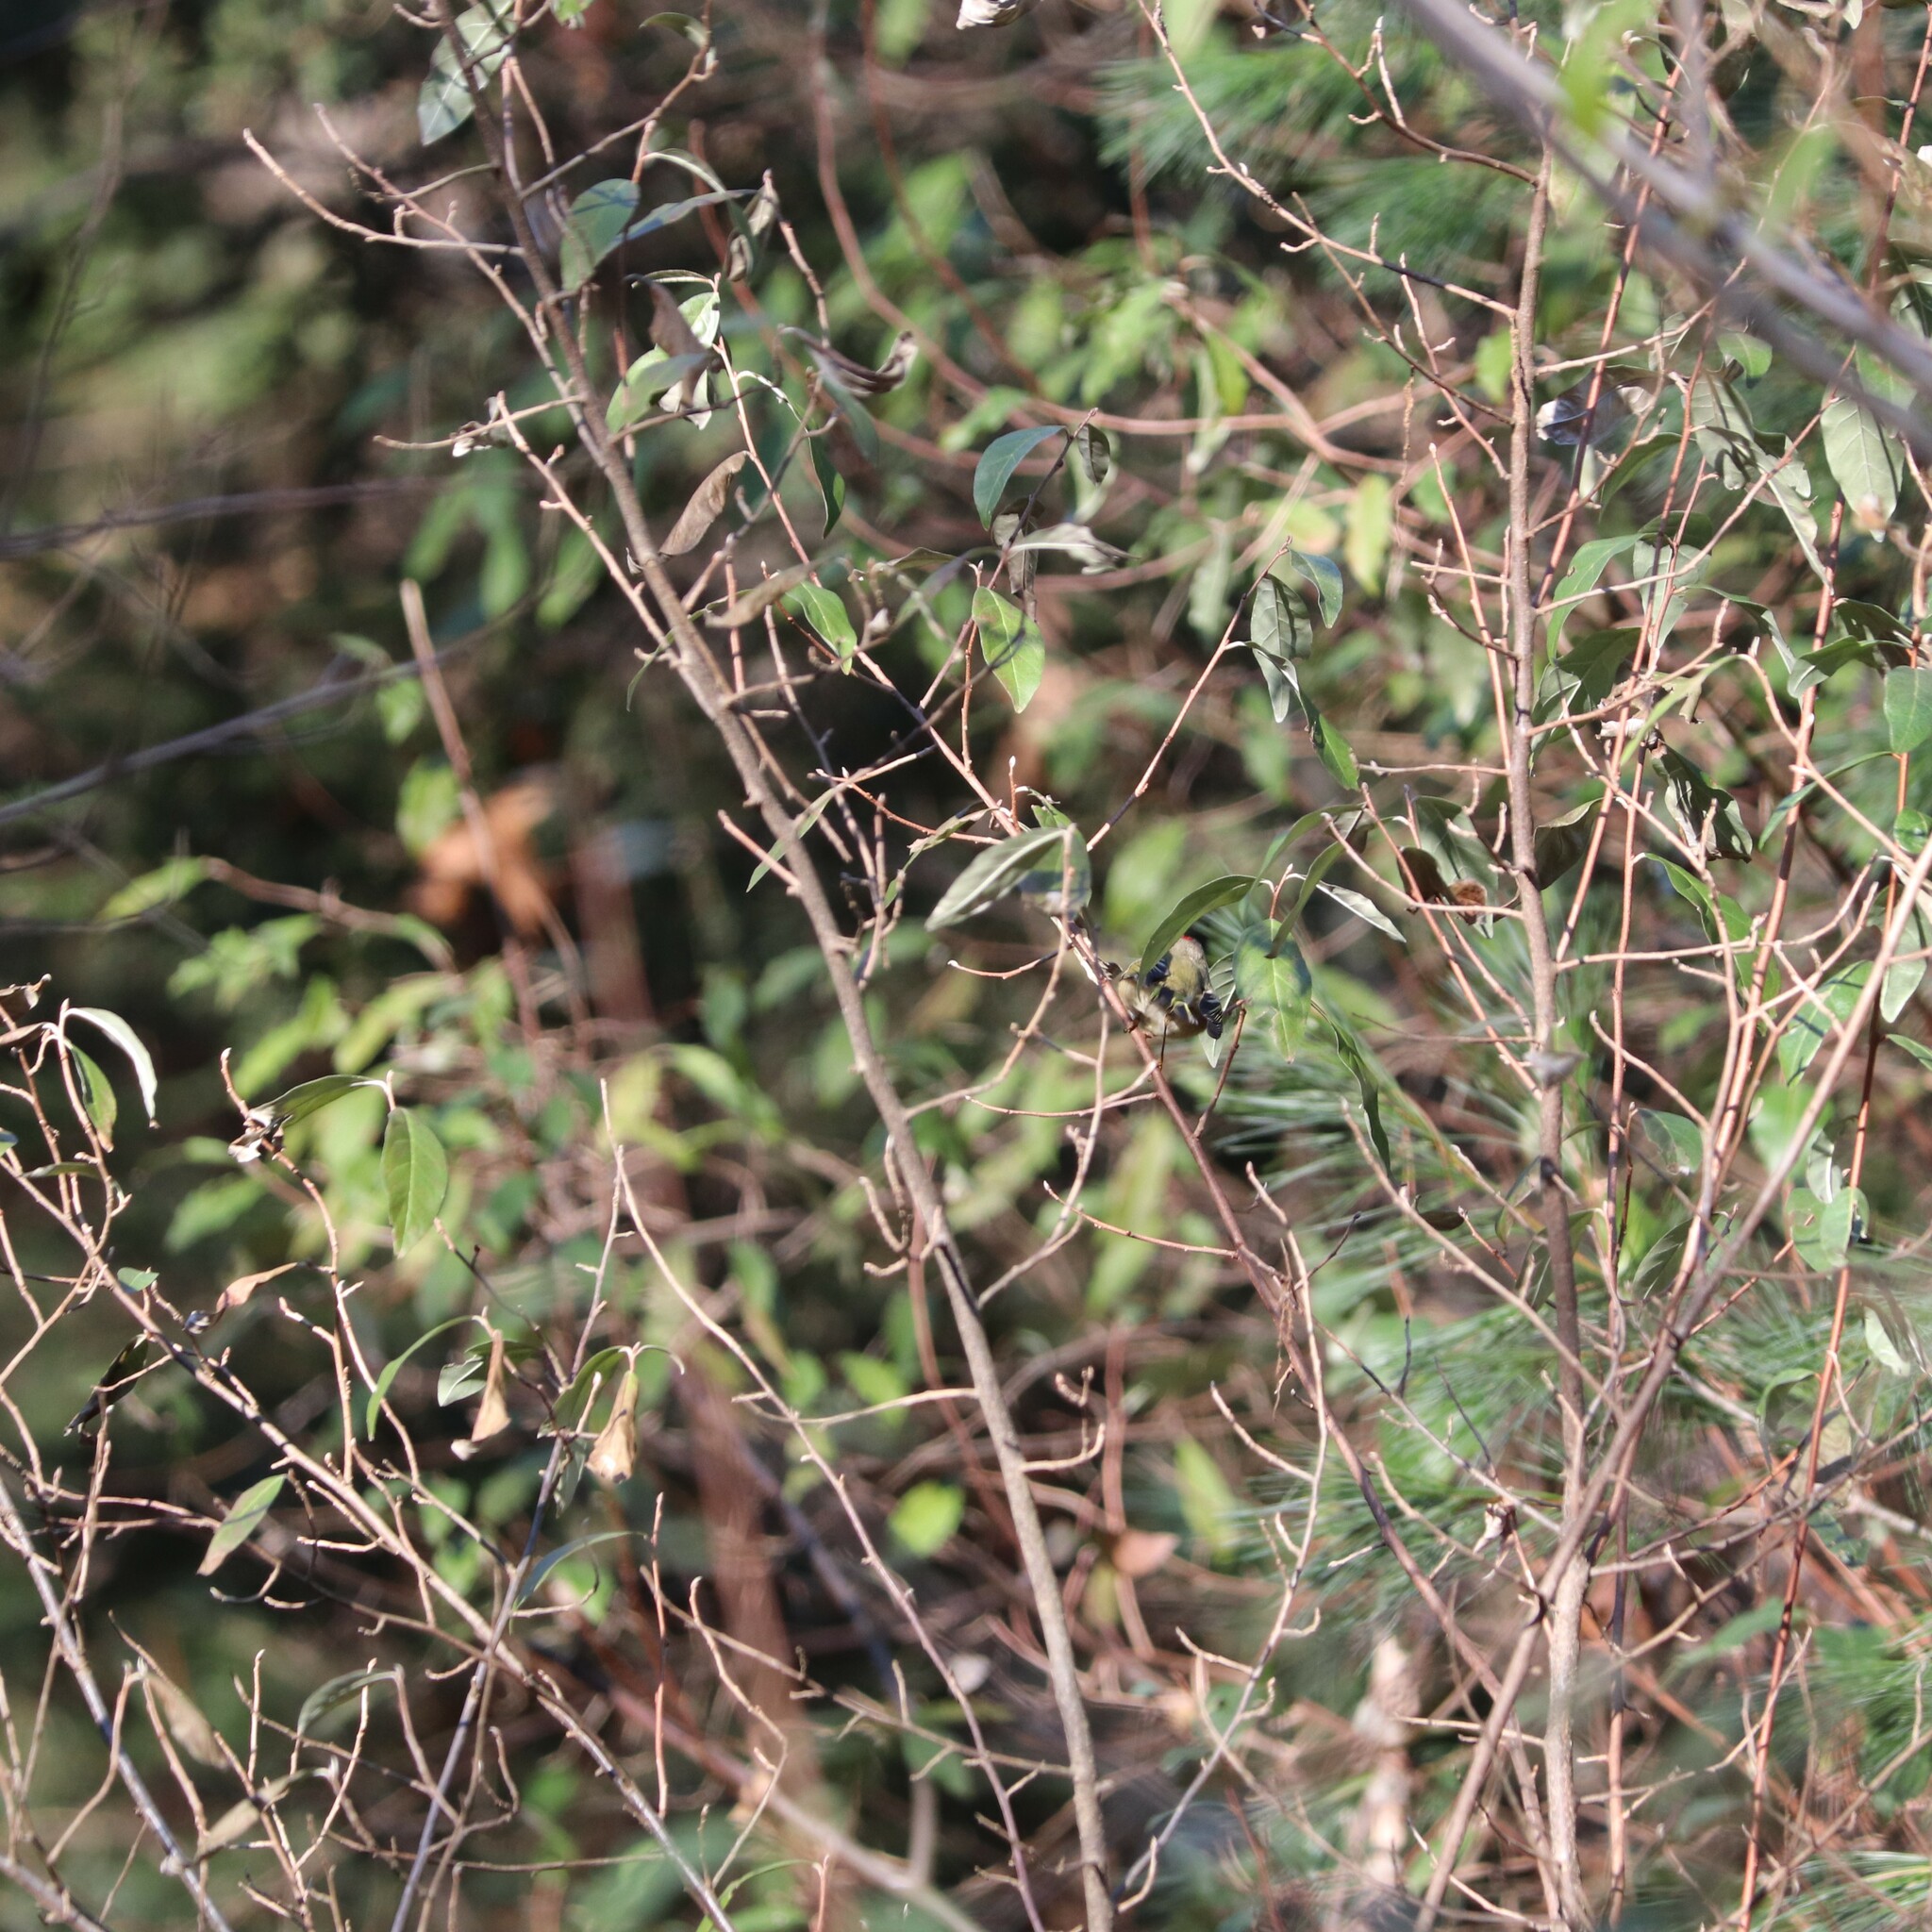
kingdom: Animalia
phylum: Chordata
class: Aves
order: Passeriformes
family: Regulidae
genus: Regulus
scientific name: Regulus calendula
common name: Ruby-crowned kinglet
